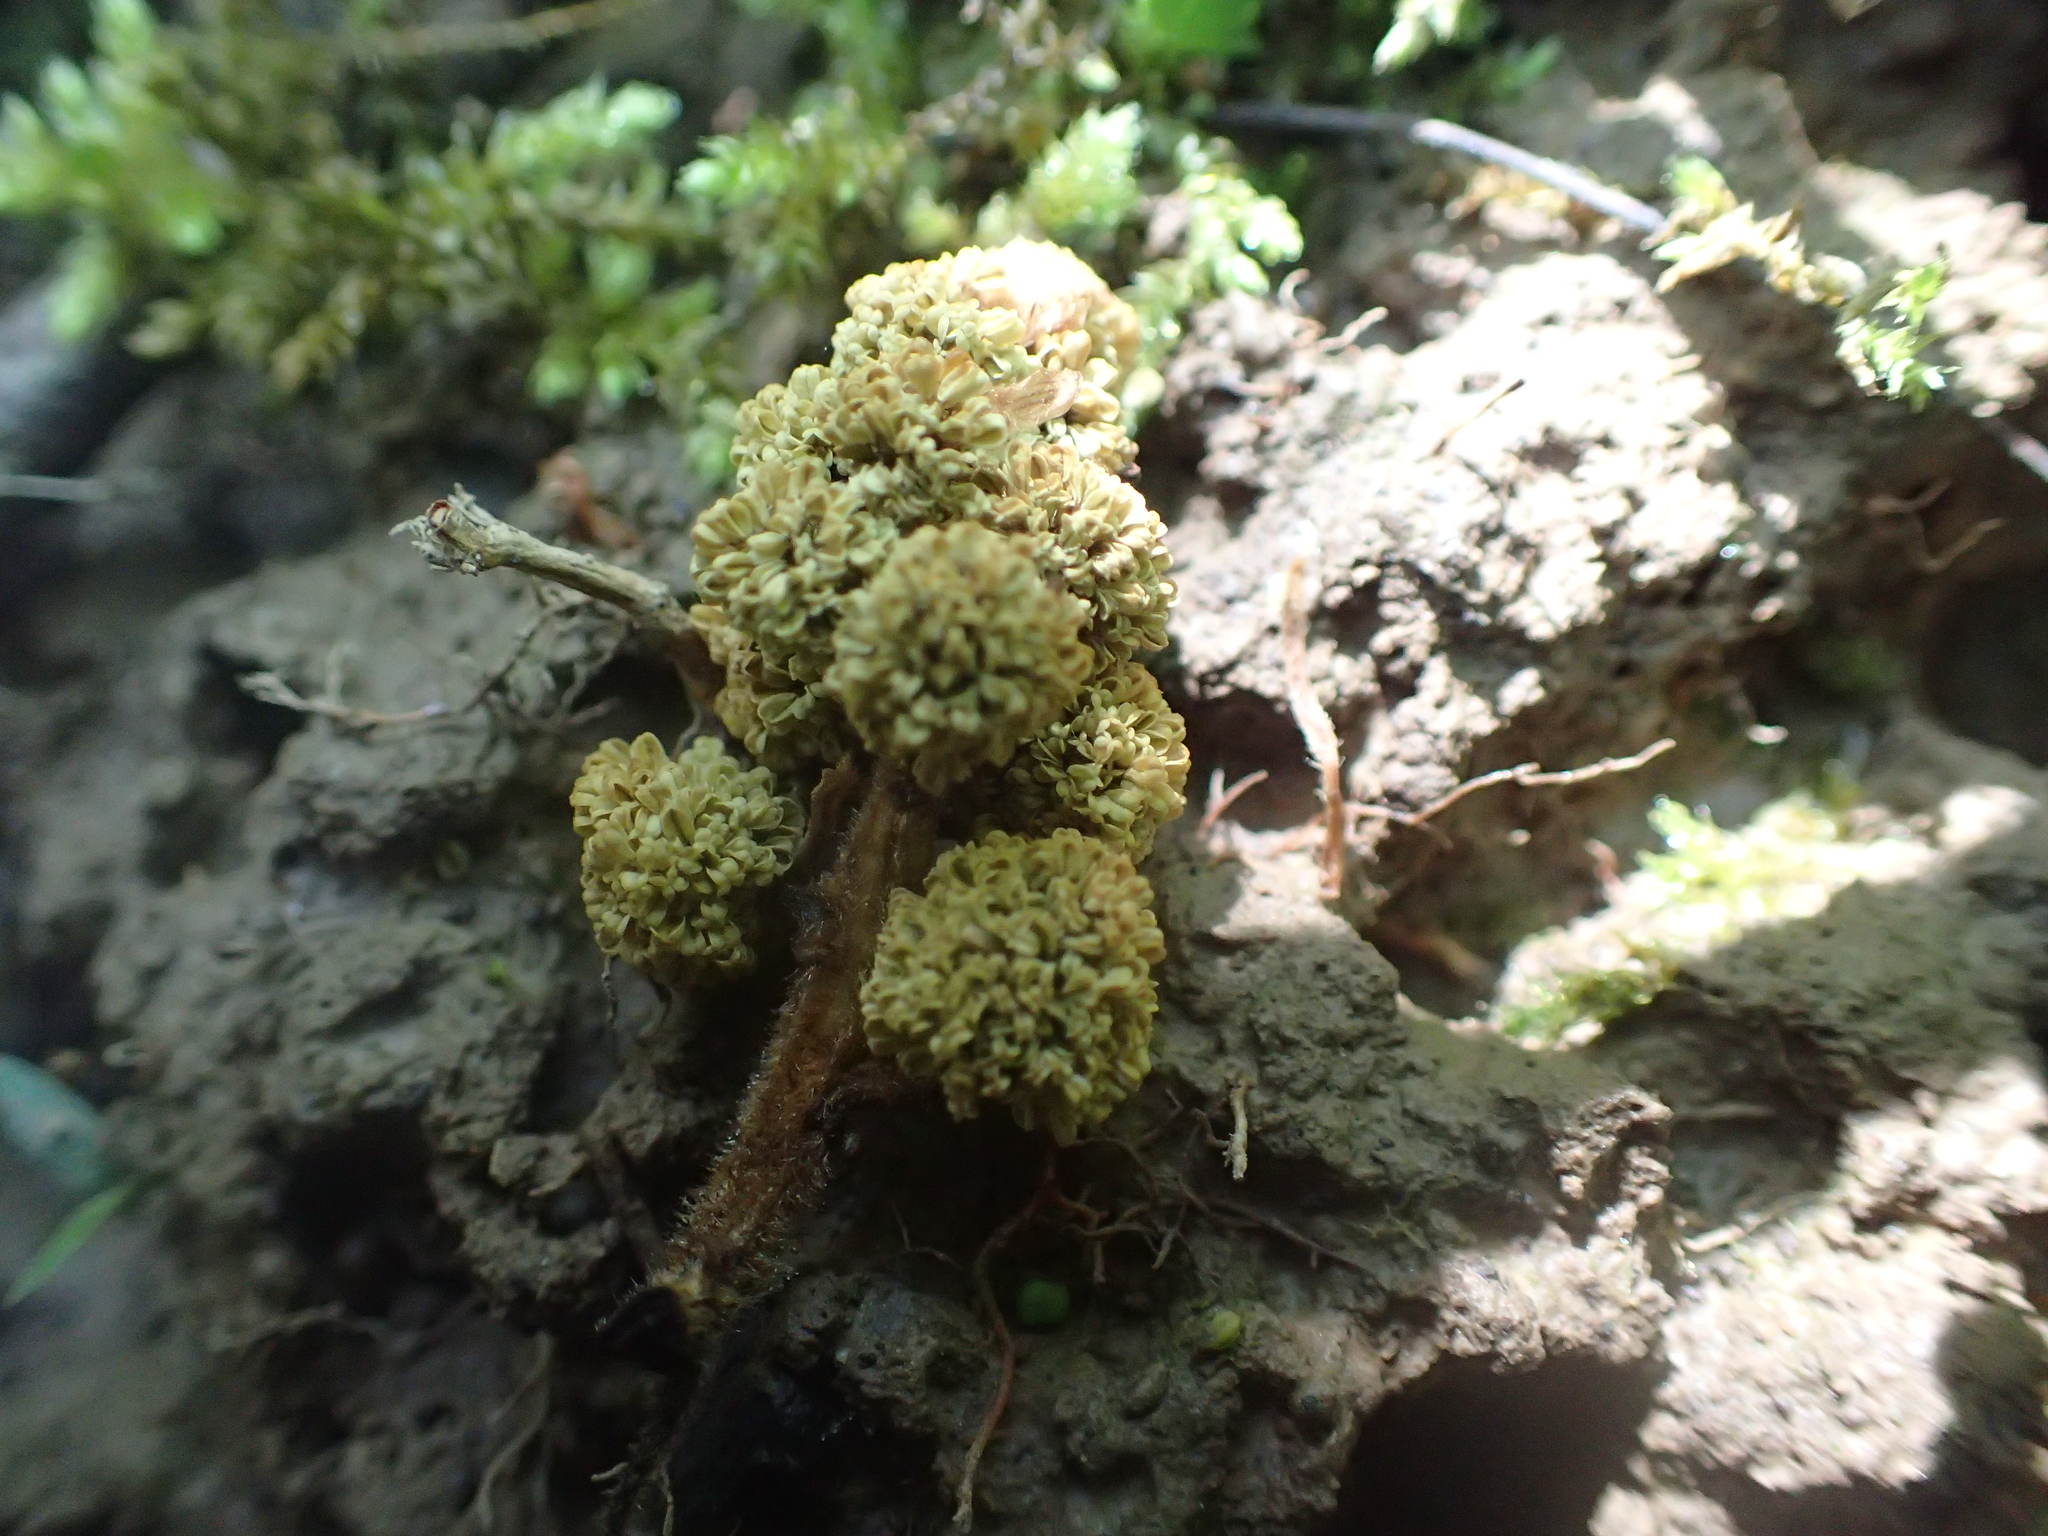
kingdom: Plantae
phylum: Tracheophyta
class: Magnoliopsida
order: Saxifragales
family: Altingiaceae
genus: Liquidambar
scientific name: Liquidambar styraciflua
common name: Sweet gum
